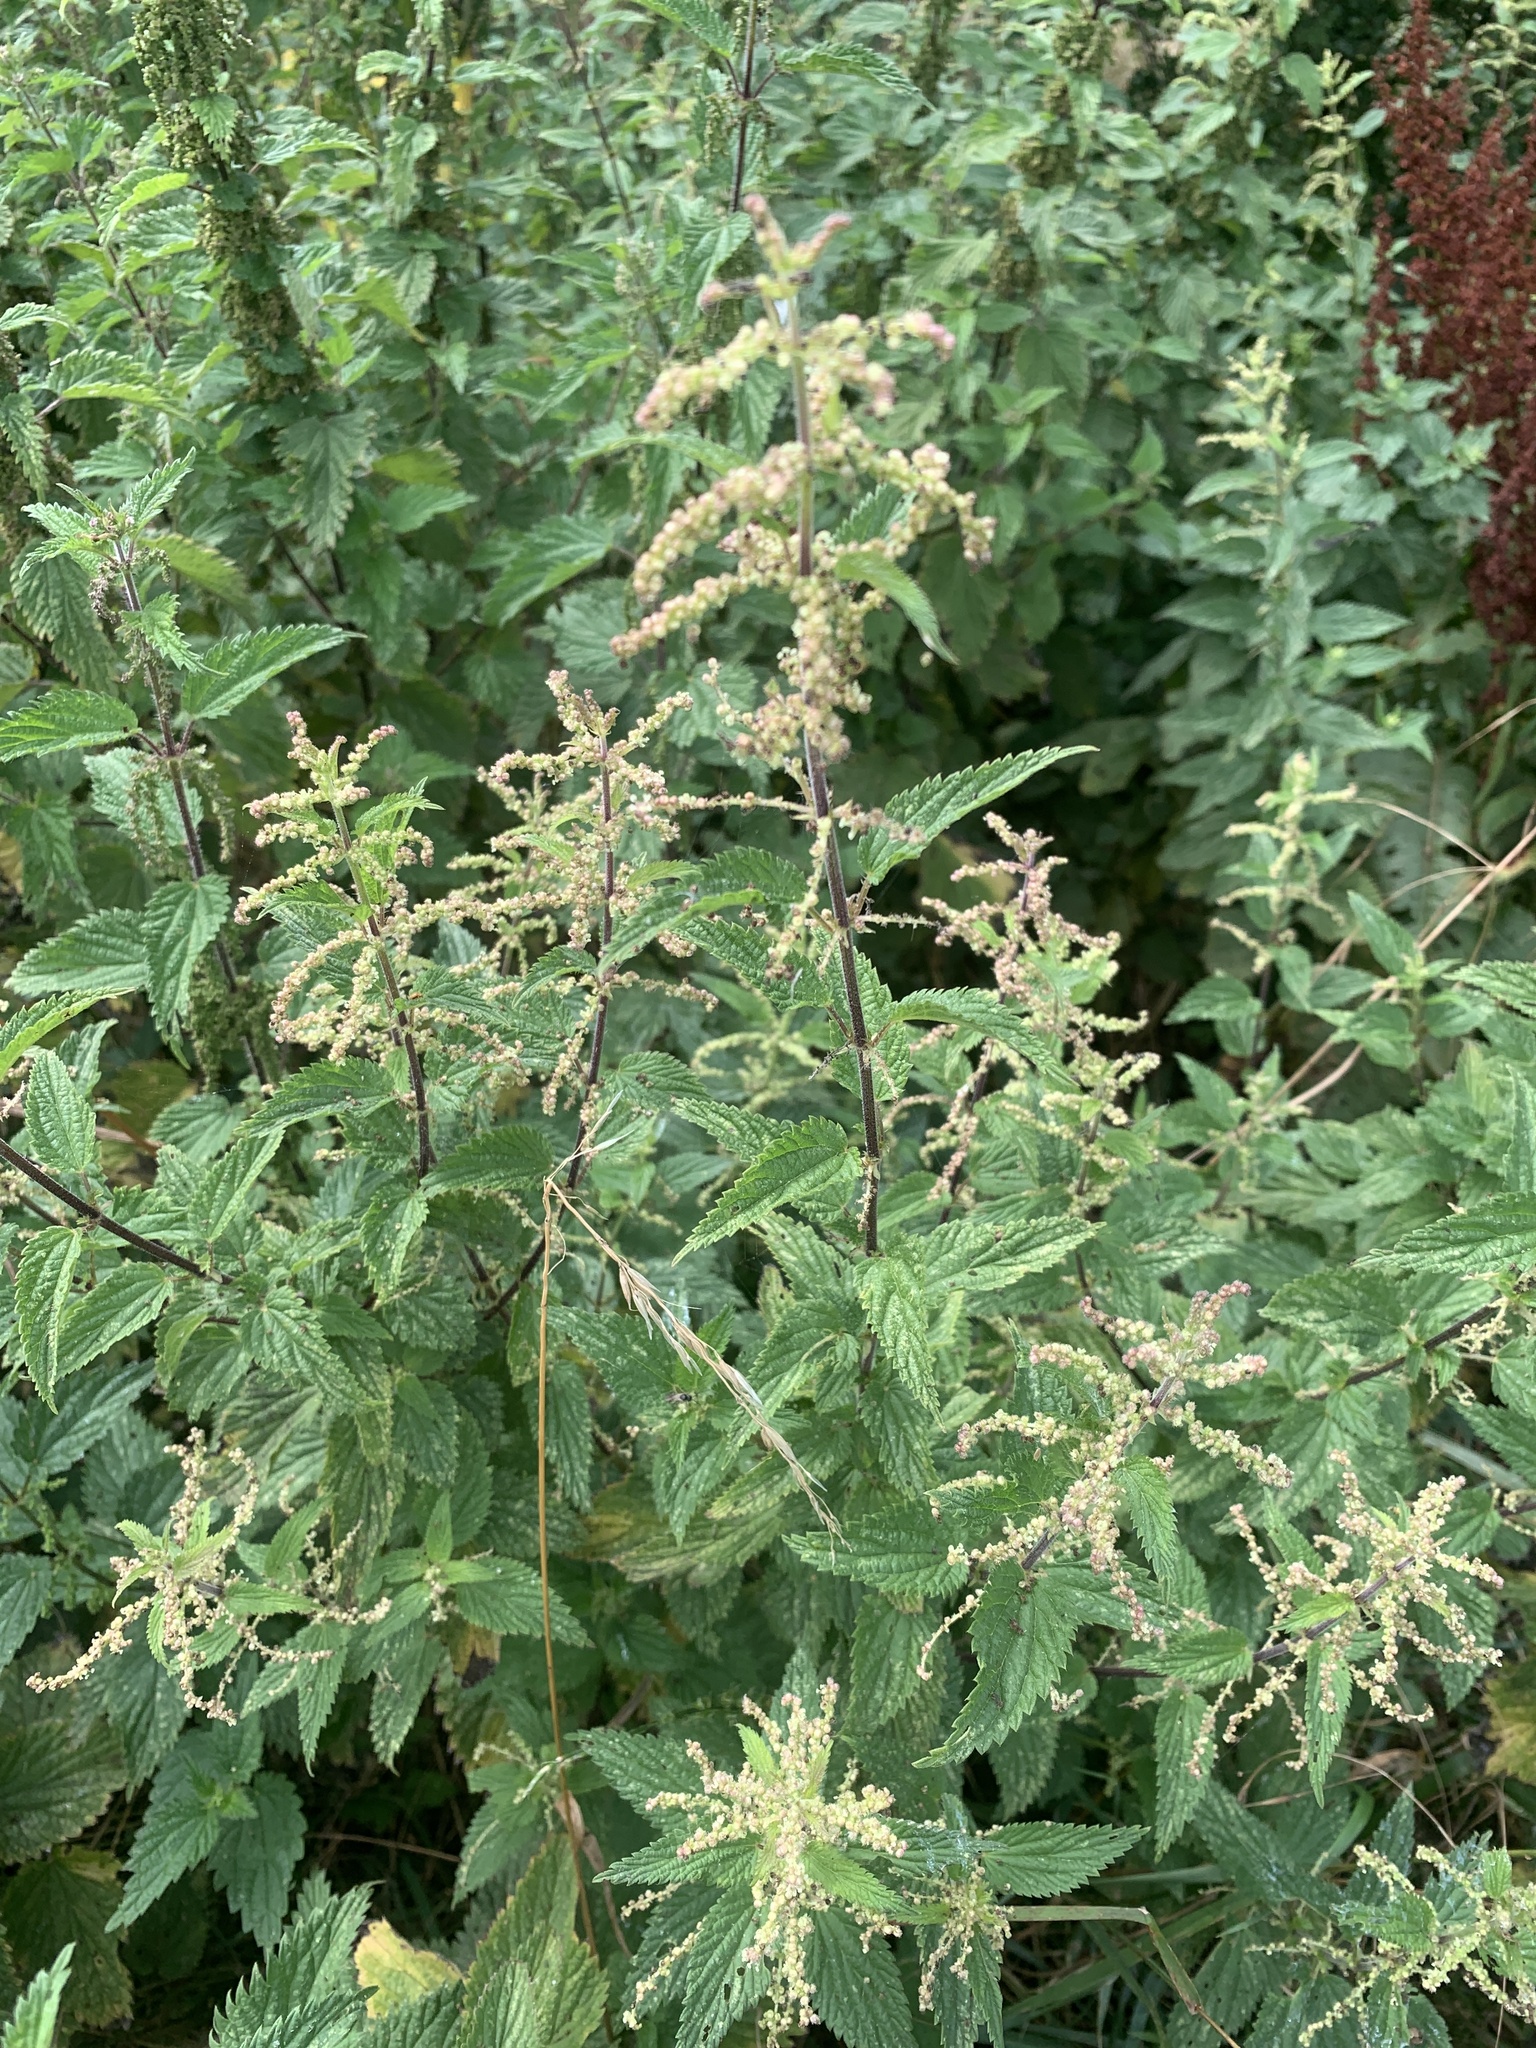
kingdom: Plantae
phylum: Tracheophyta
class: Magnoliopsida
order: Rosales
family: Urticaceae
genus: Urtica
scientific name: Urtica dioica
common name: Common nettle
